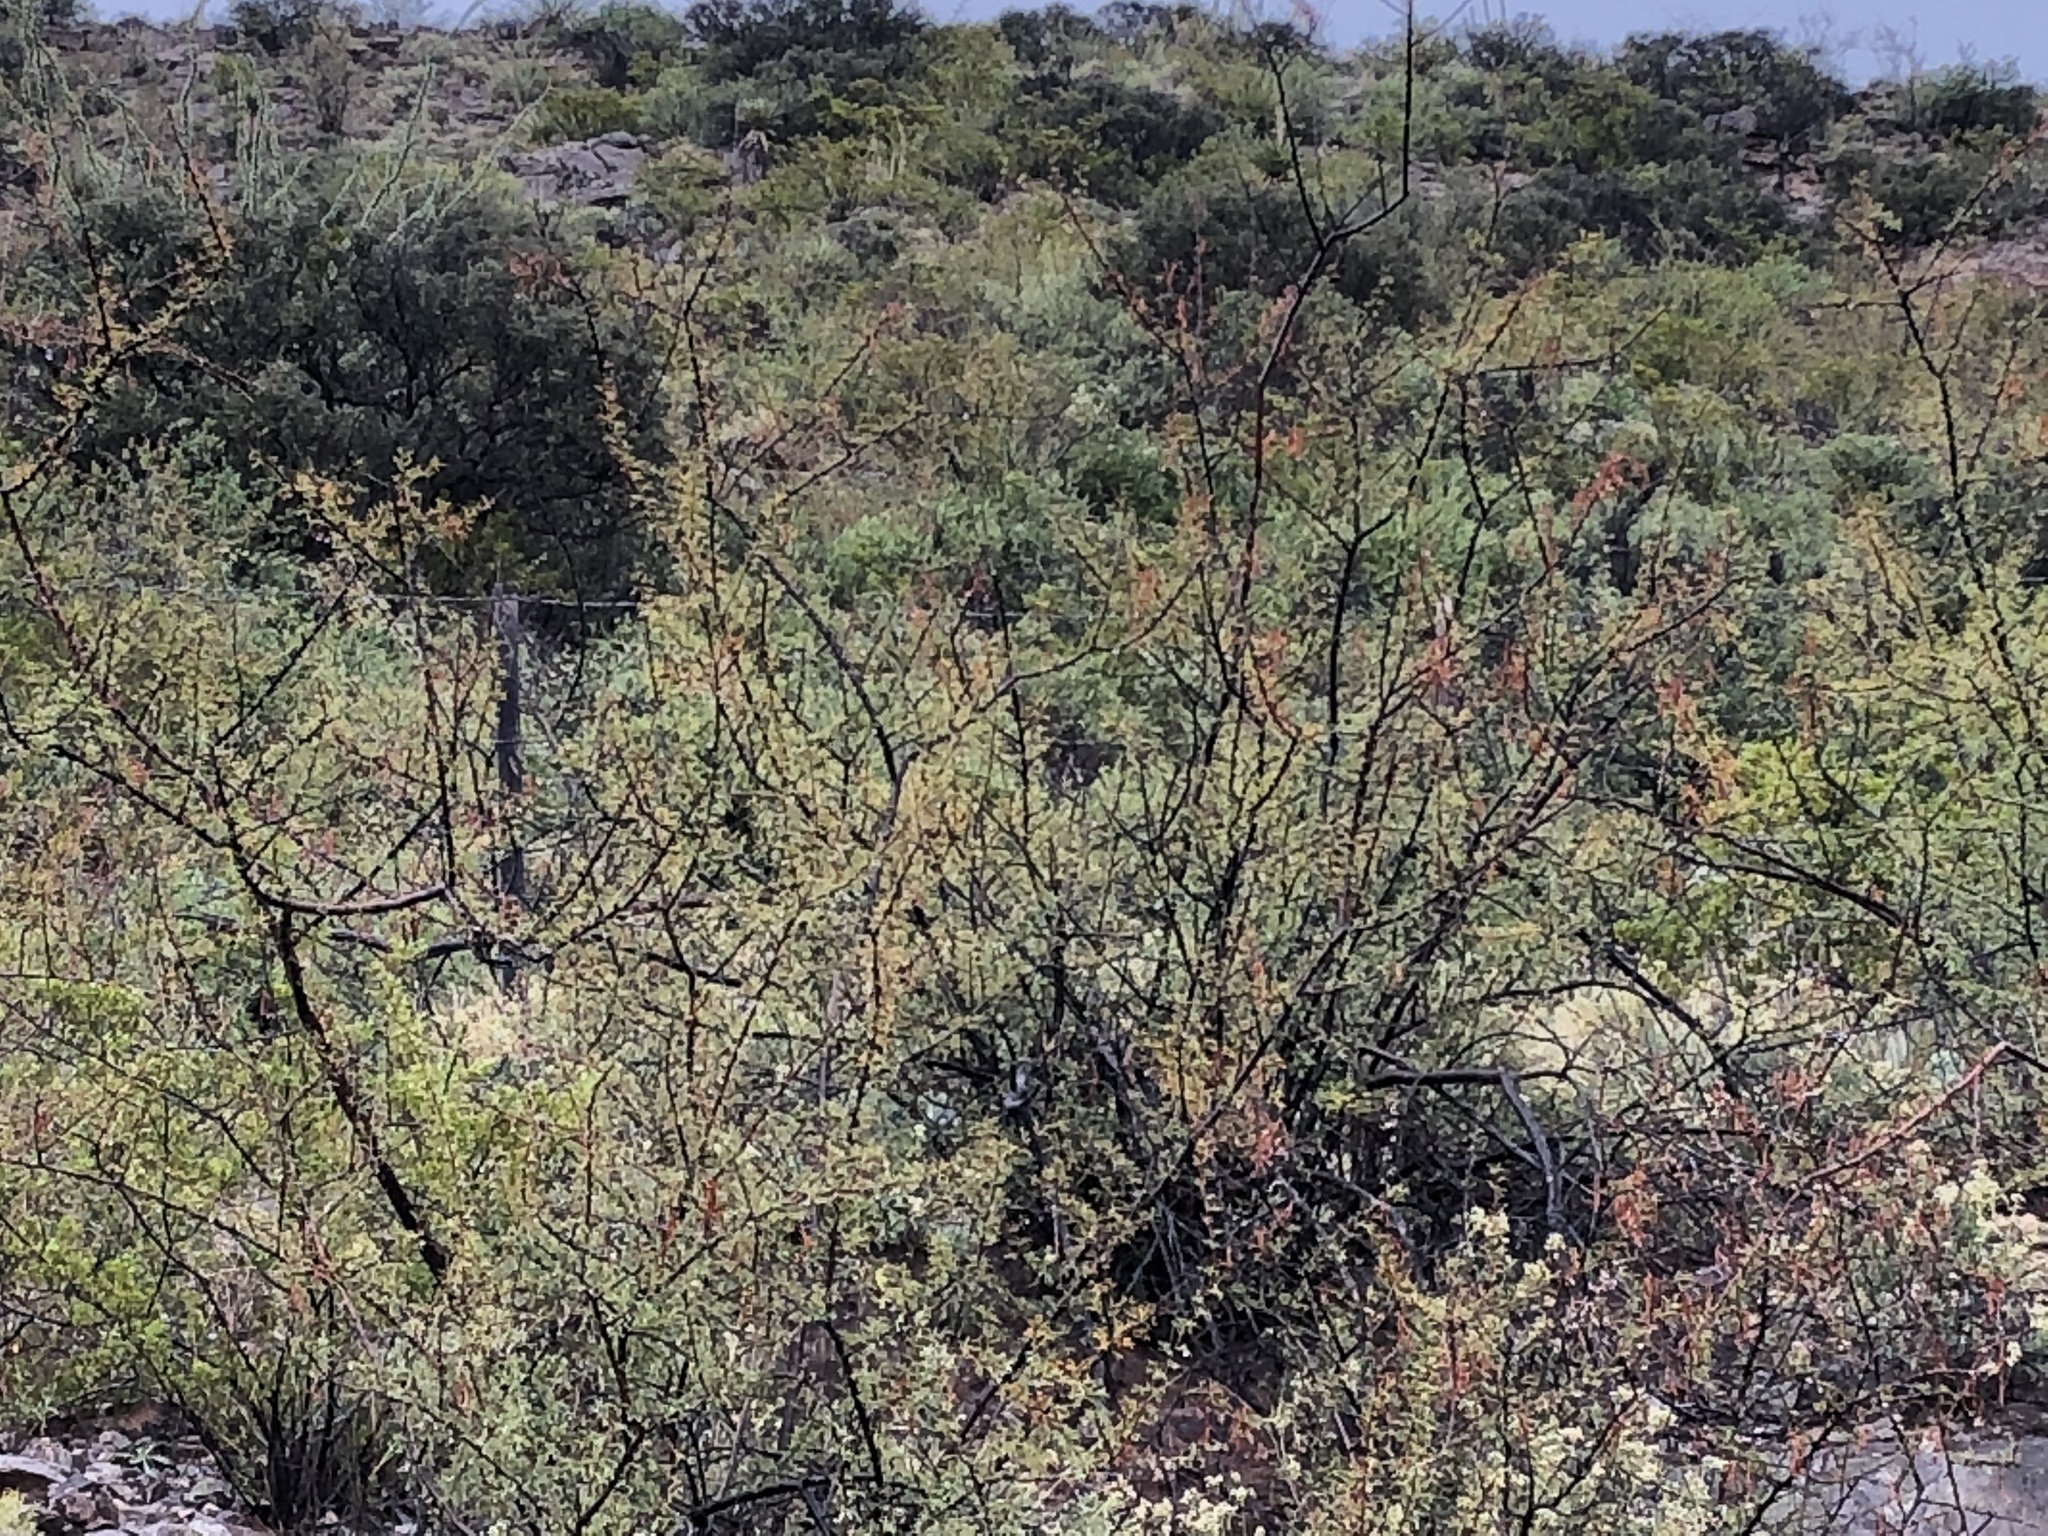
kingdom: Plantae
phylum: Tracheophyta
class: Magnoliopsida
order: Fabales
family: Fabaceae
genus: Vachellia
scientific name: Vachellia constricta
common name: Mescat acacia
